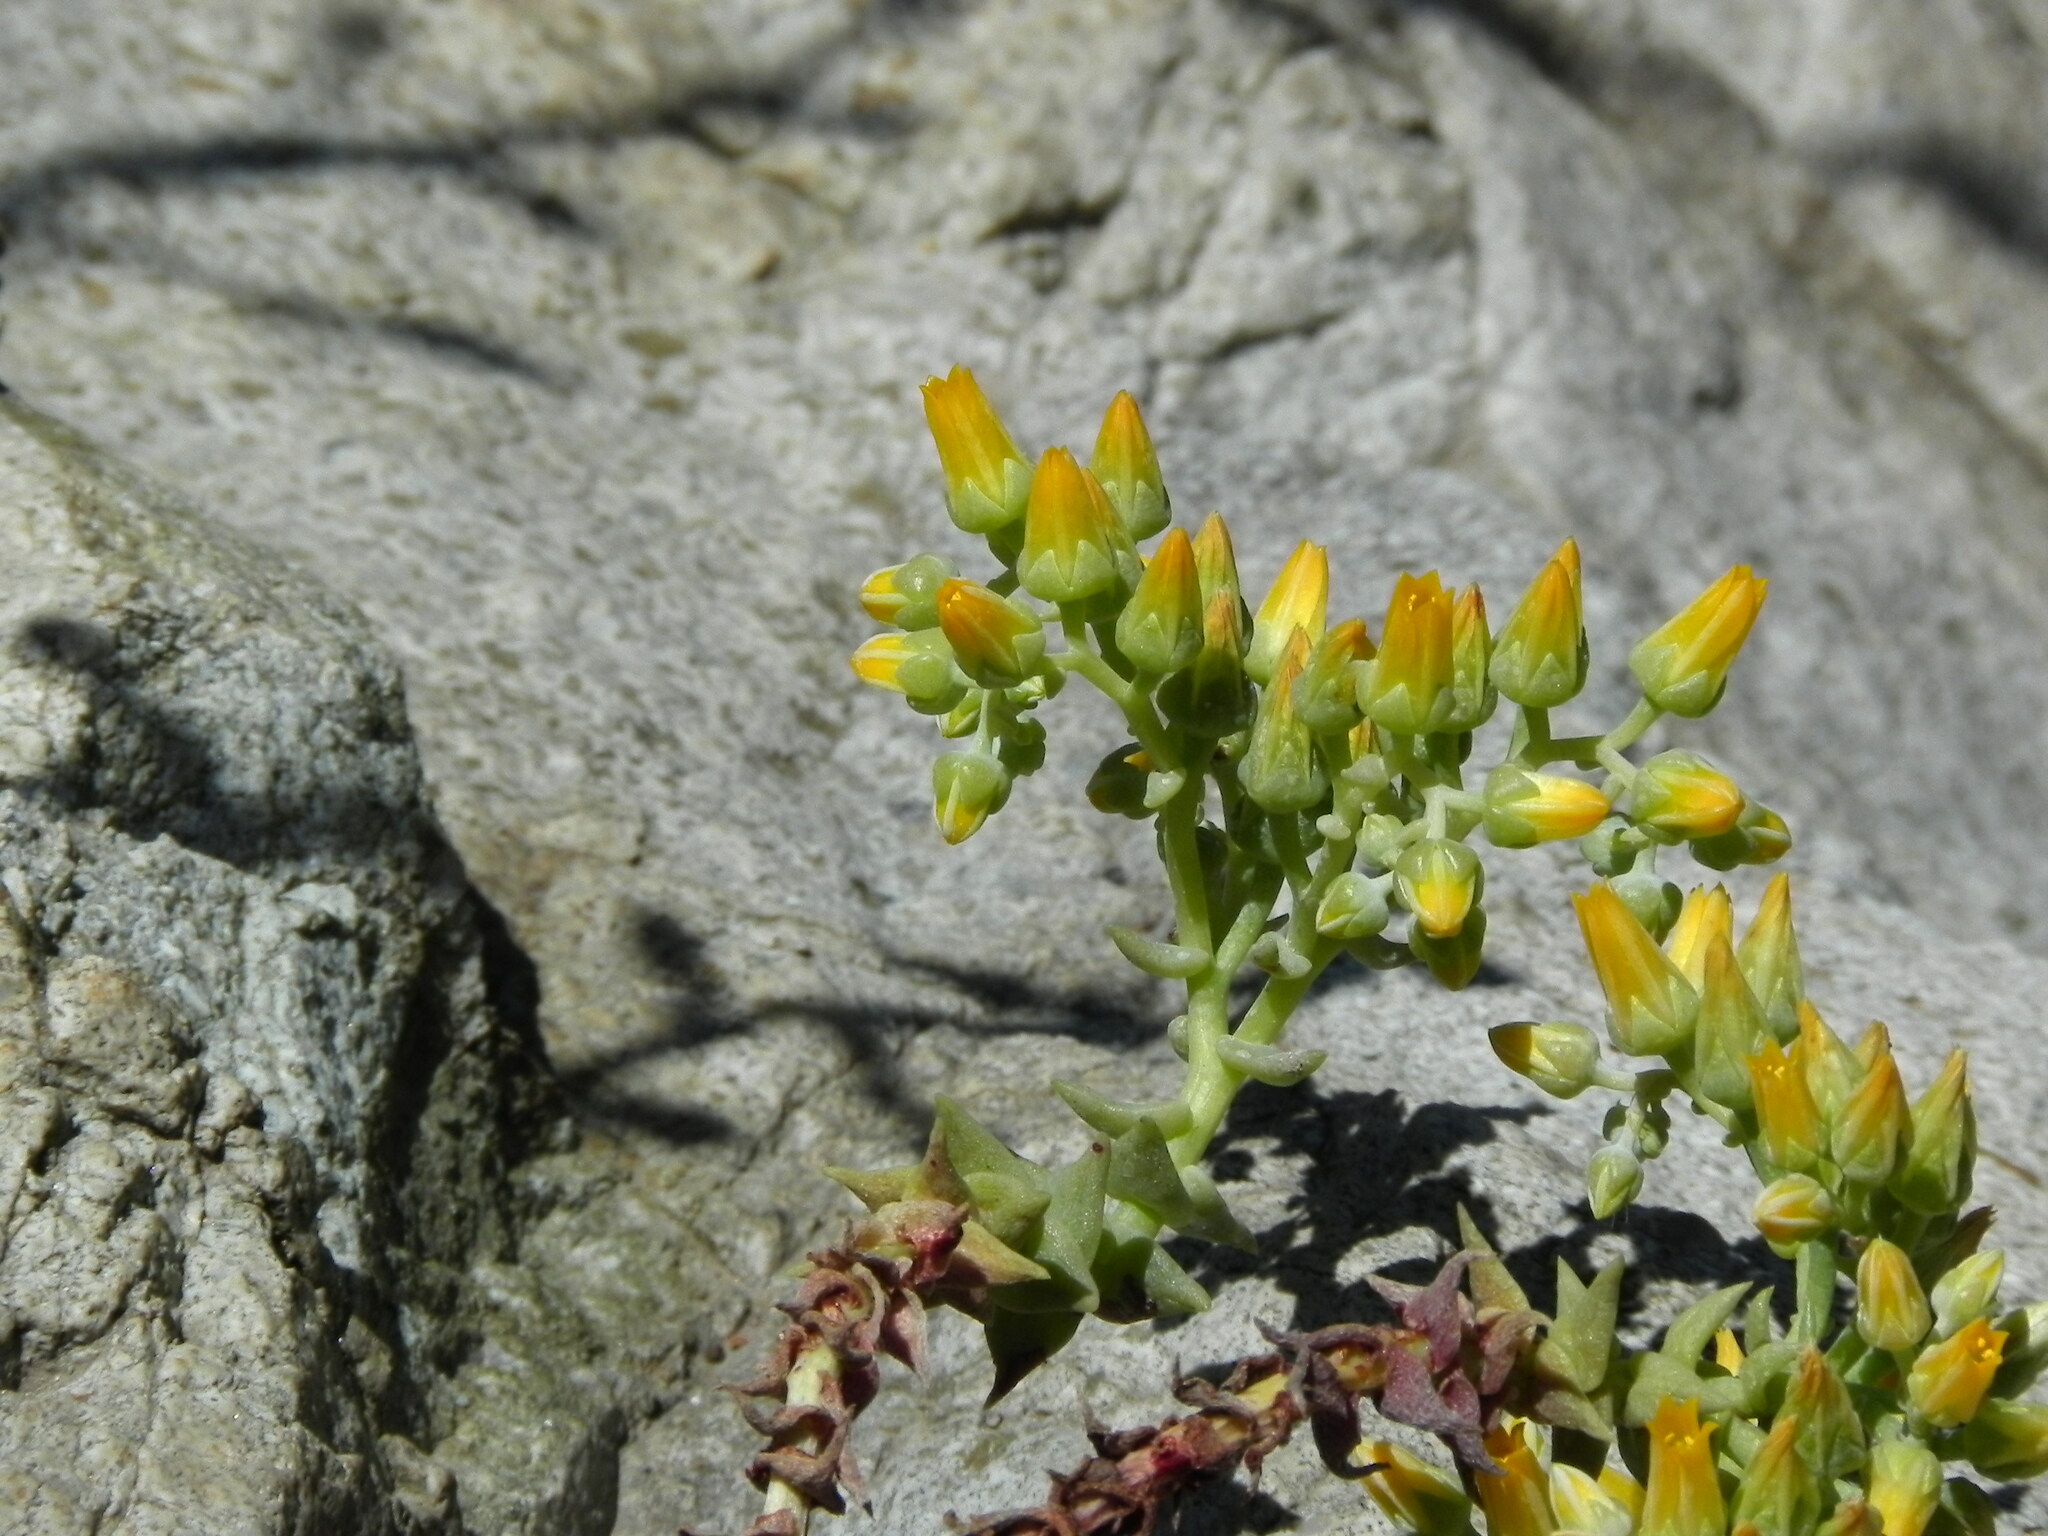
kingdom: Plantae
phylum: Tracheophyta
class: Magnoliopsida
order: Saxifragales
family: Crassulaceae
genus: Dudleya
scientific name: Dudleya cymosa
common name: Canyon dudleya
